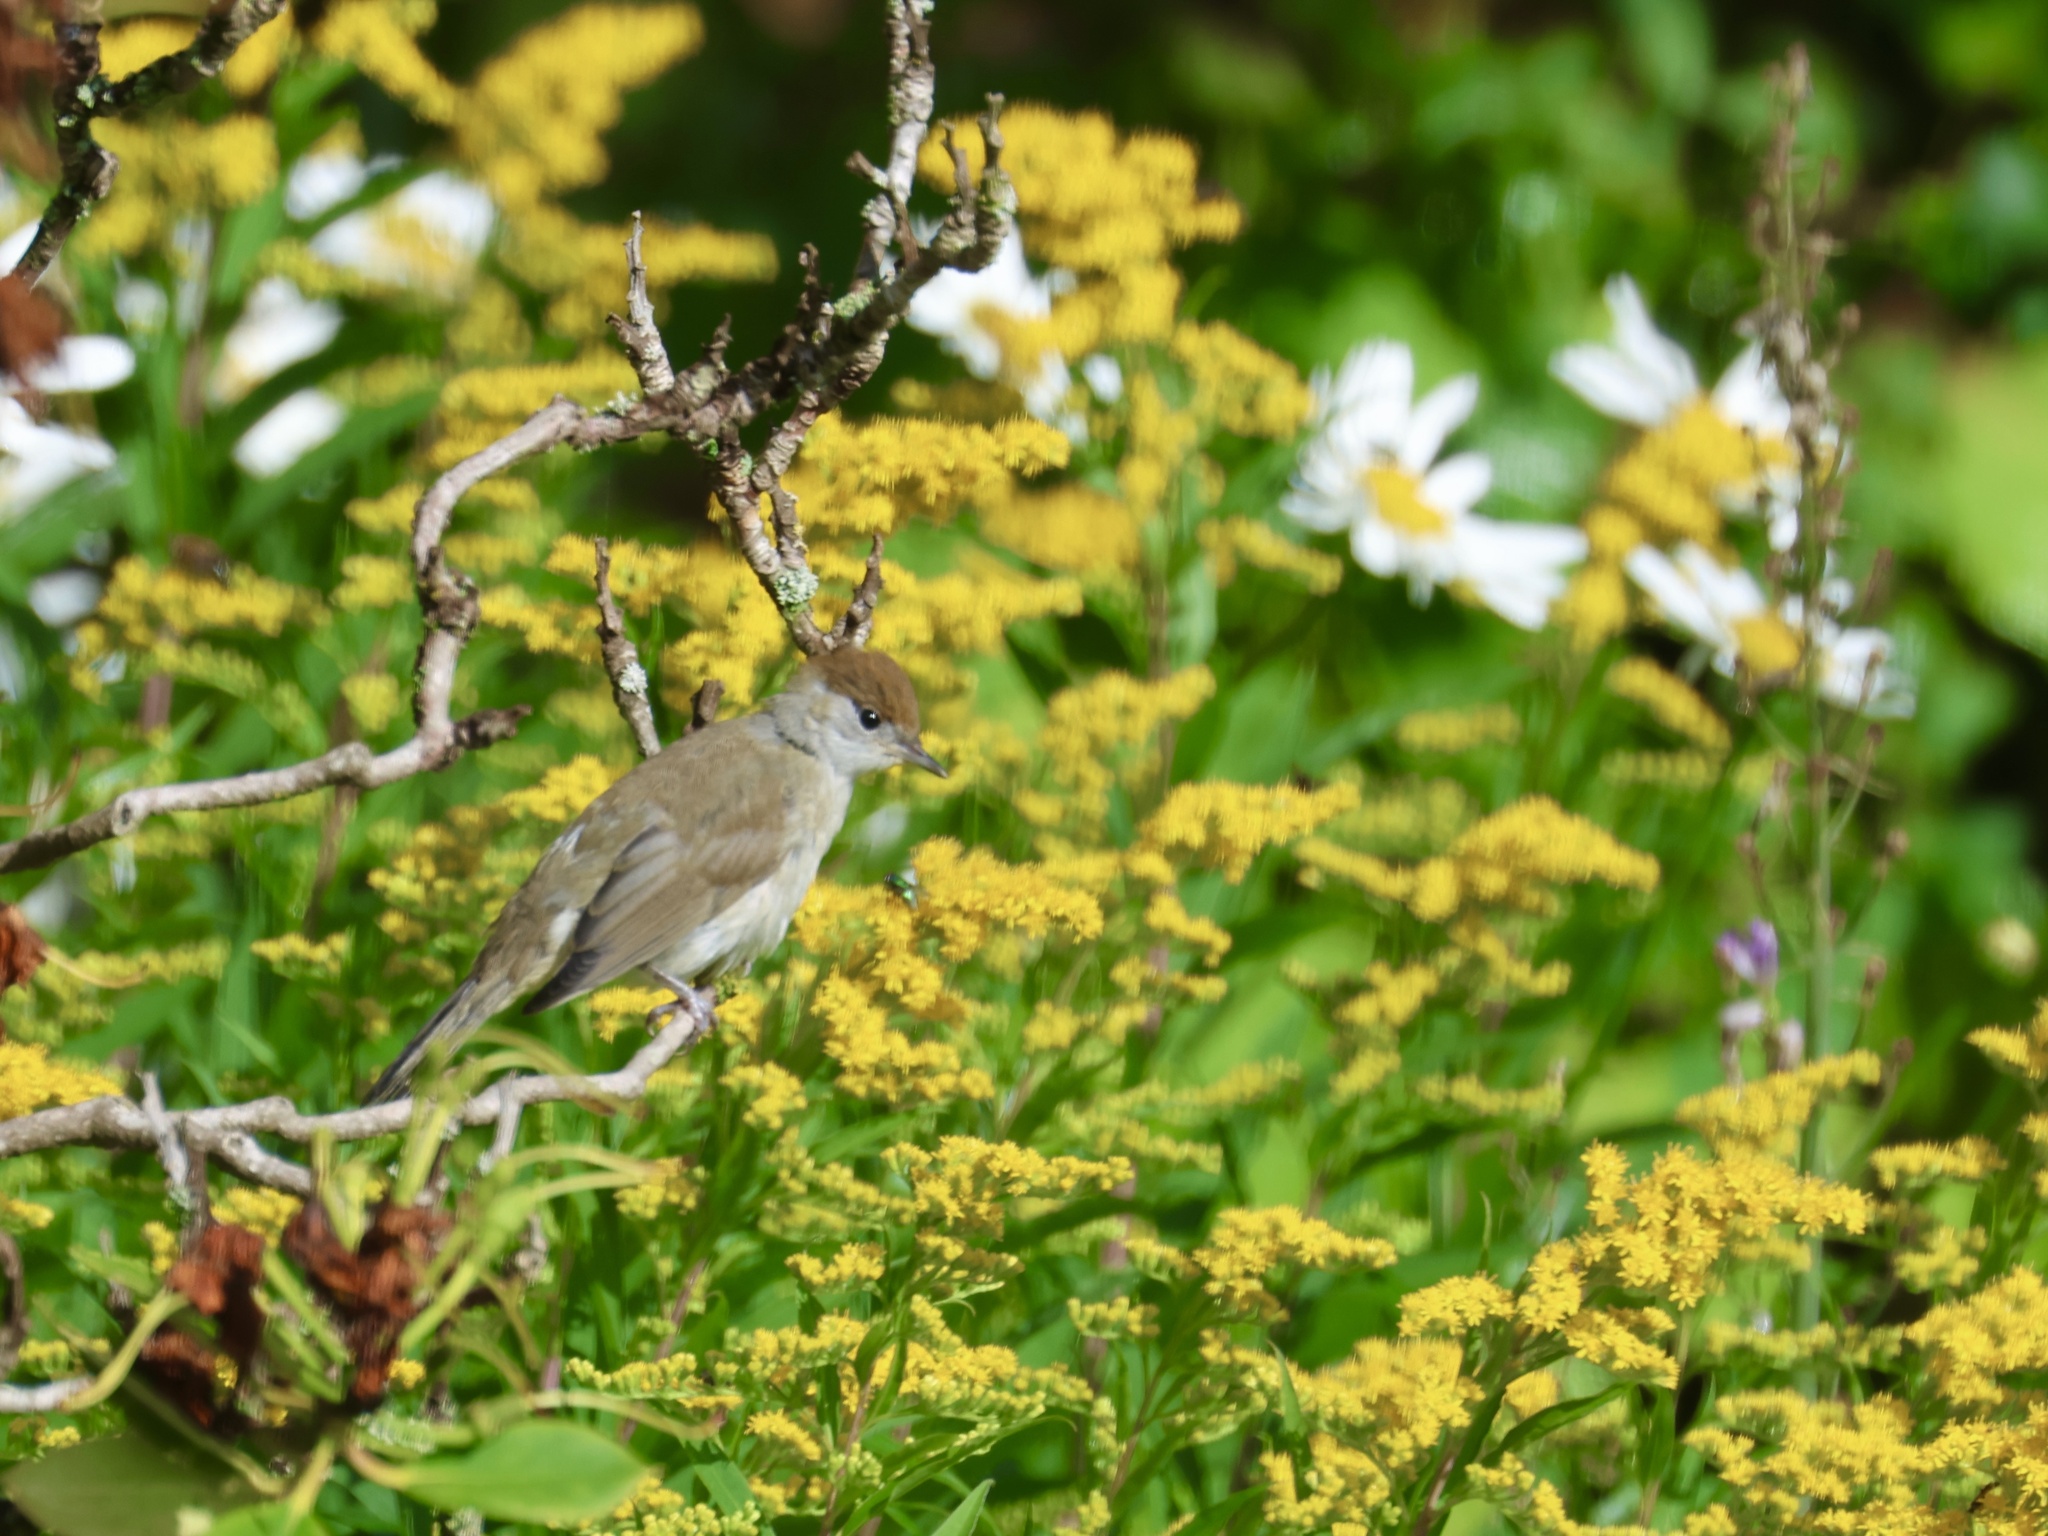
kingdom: Animalia
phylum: Chordata
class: Aves
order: Passeriformes
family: Sylviidae
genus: Sylvia
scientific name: Sylvia atricapilla
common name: Eurasian blackcap
